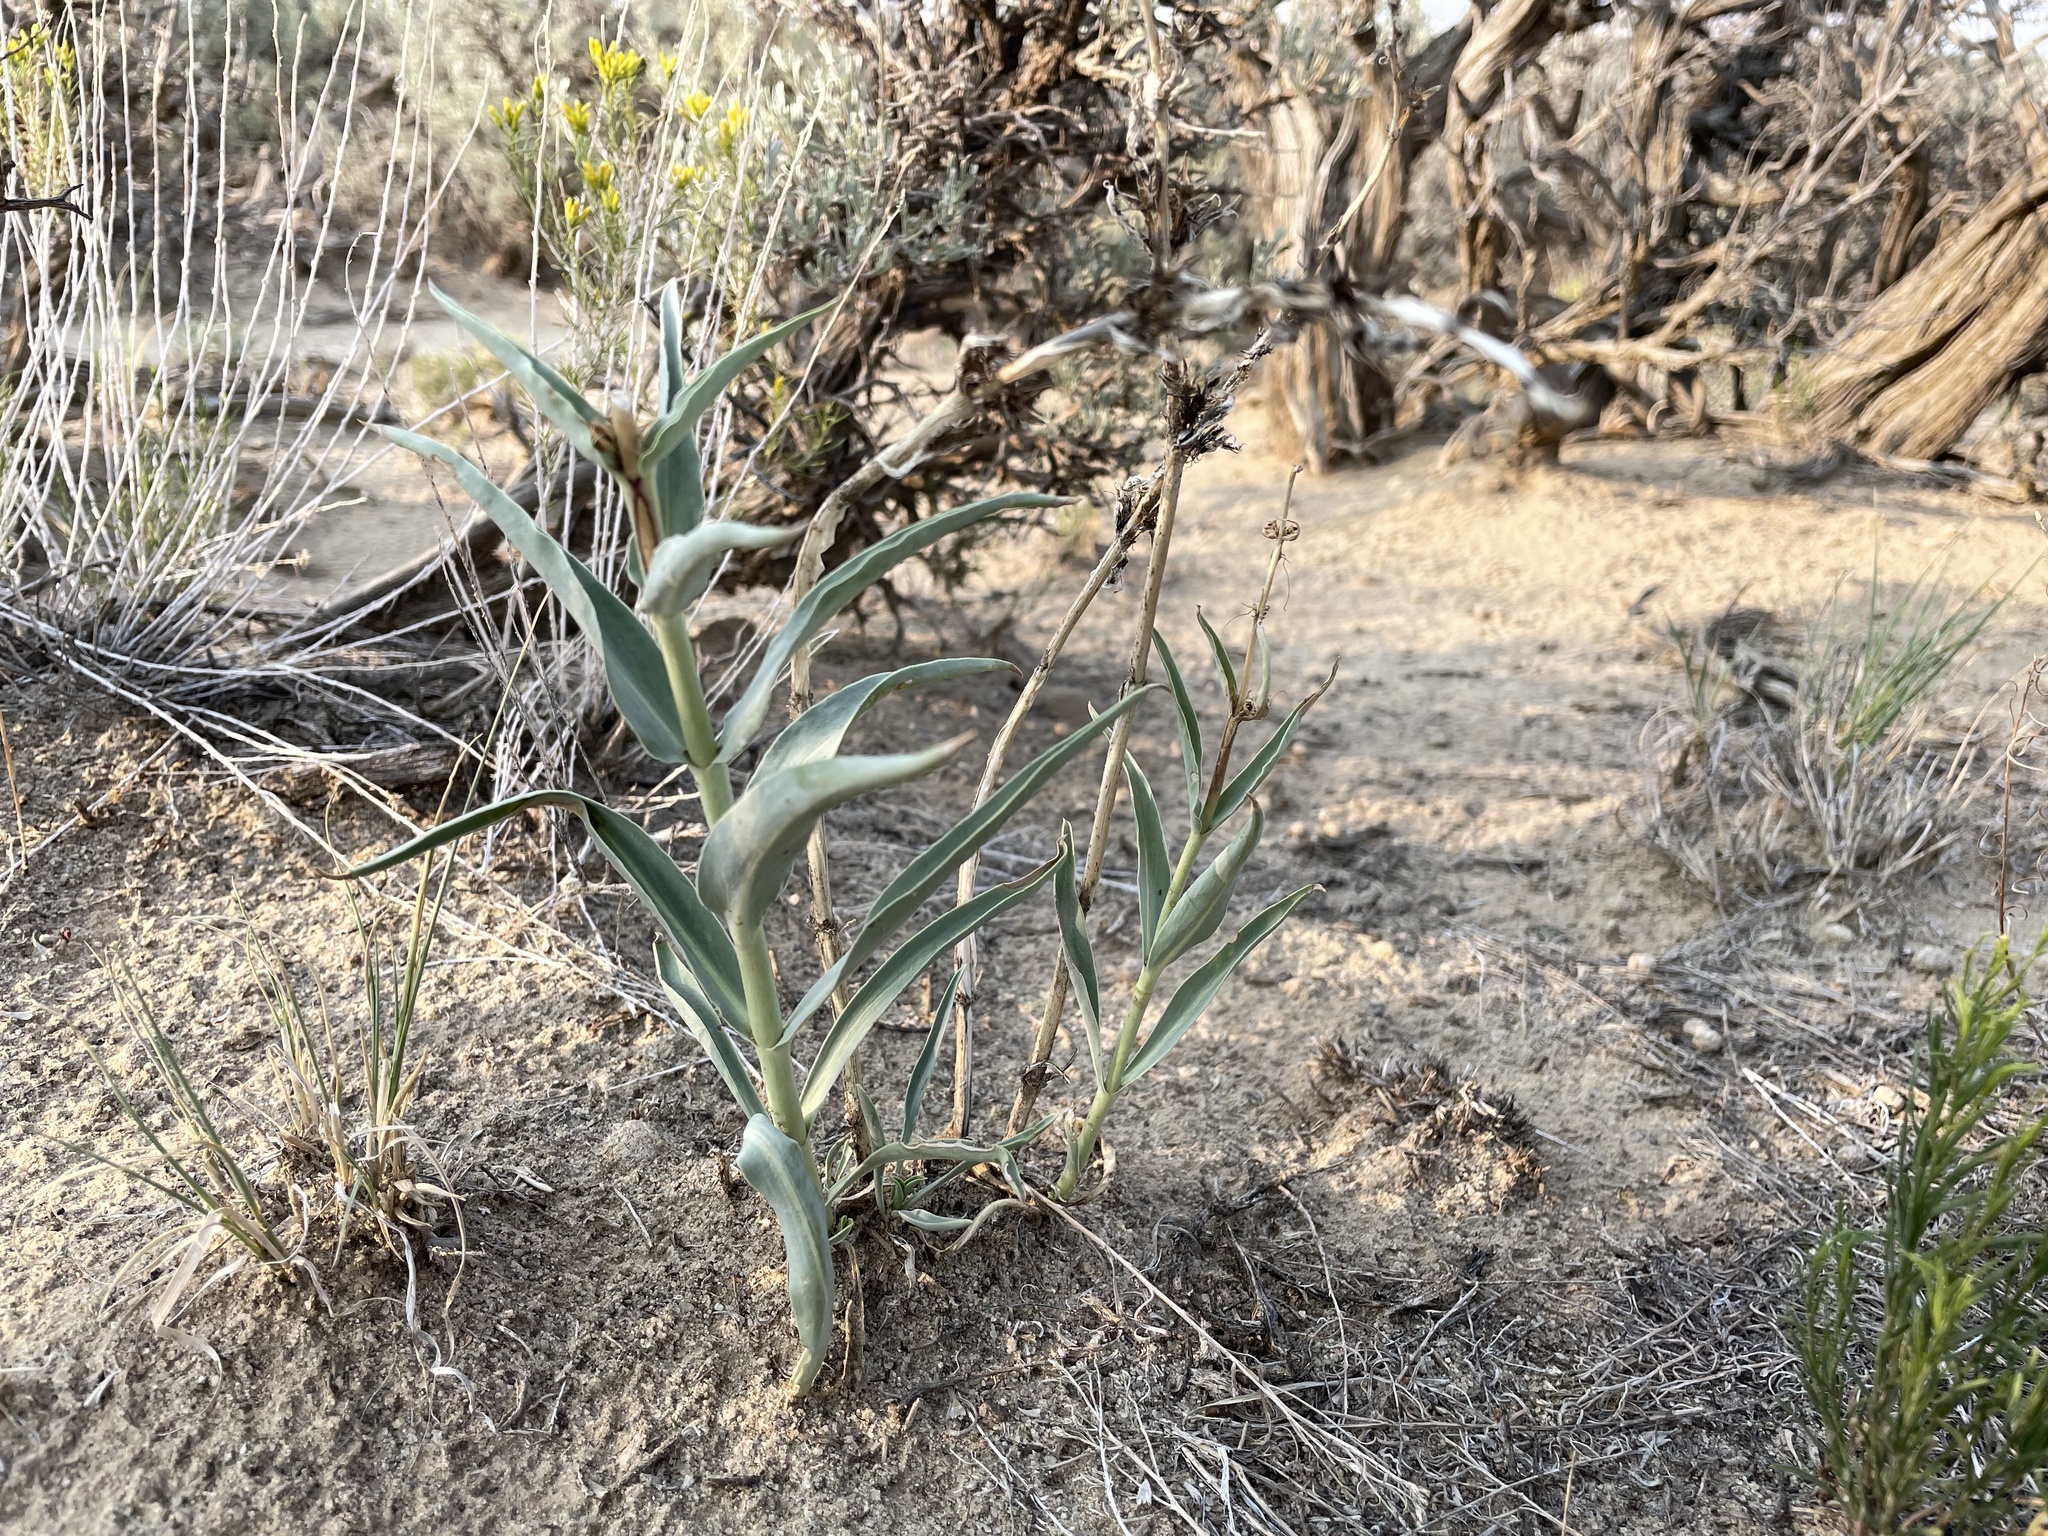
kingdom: Plantae
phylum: Tracheophyta
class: Magnoliopsida
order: Lamiales
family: Plantaginaceae
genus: Penstemon
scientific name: Penstemon angustifolius
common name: Narrow beardtongue
